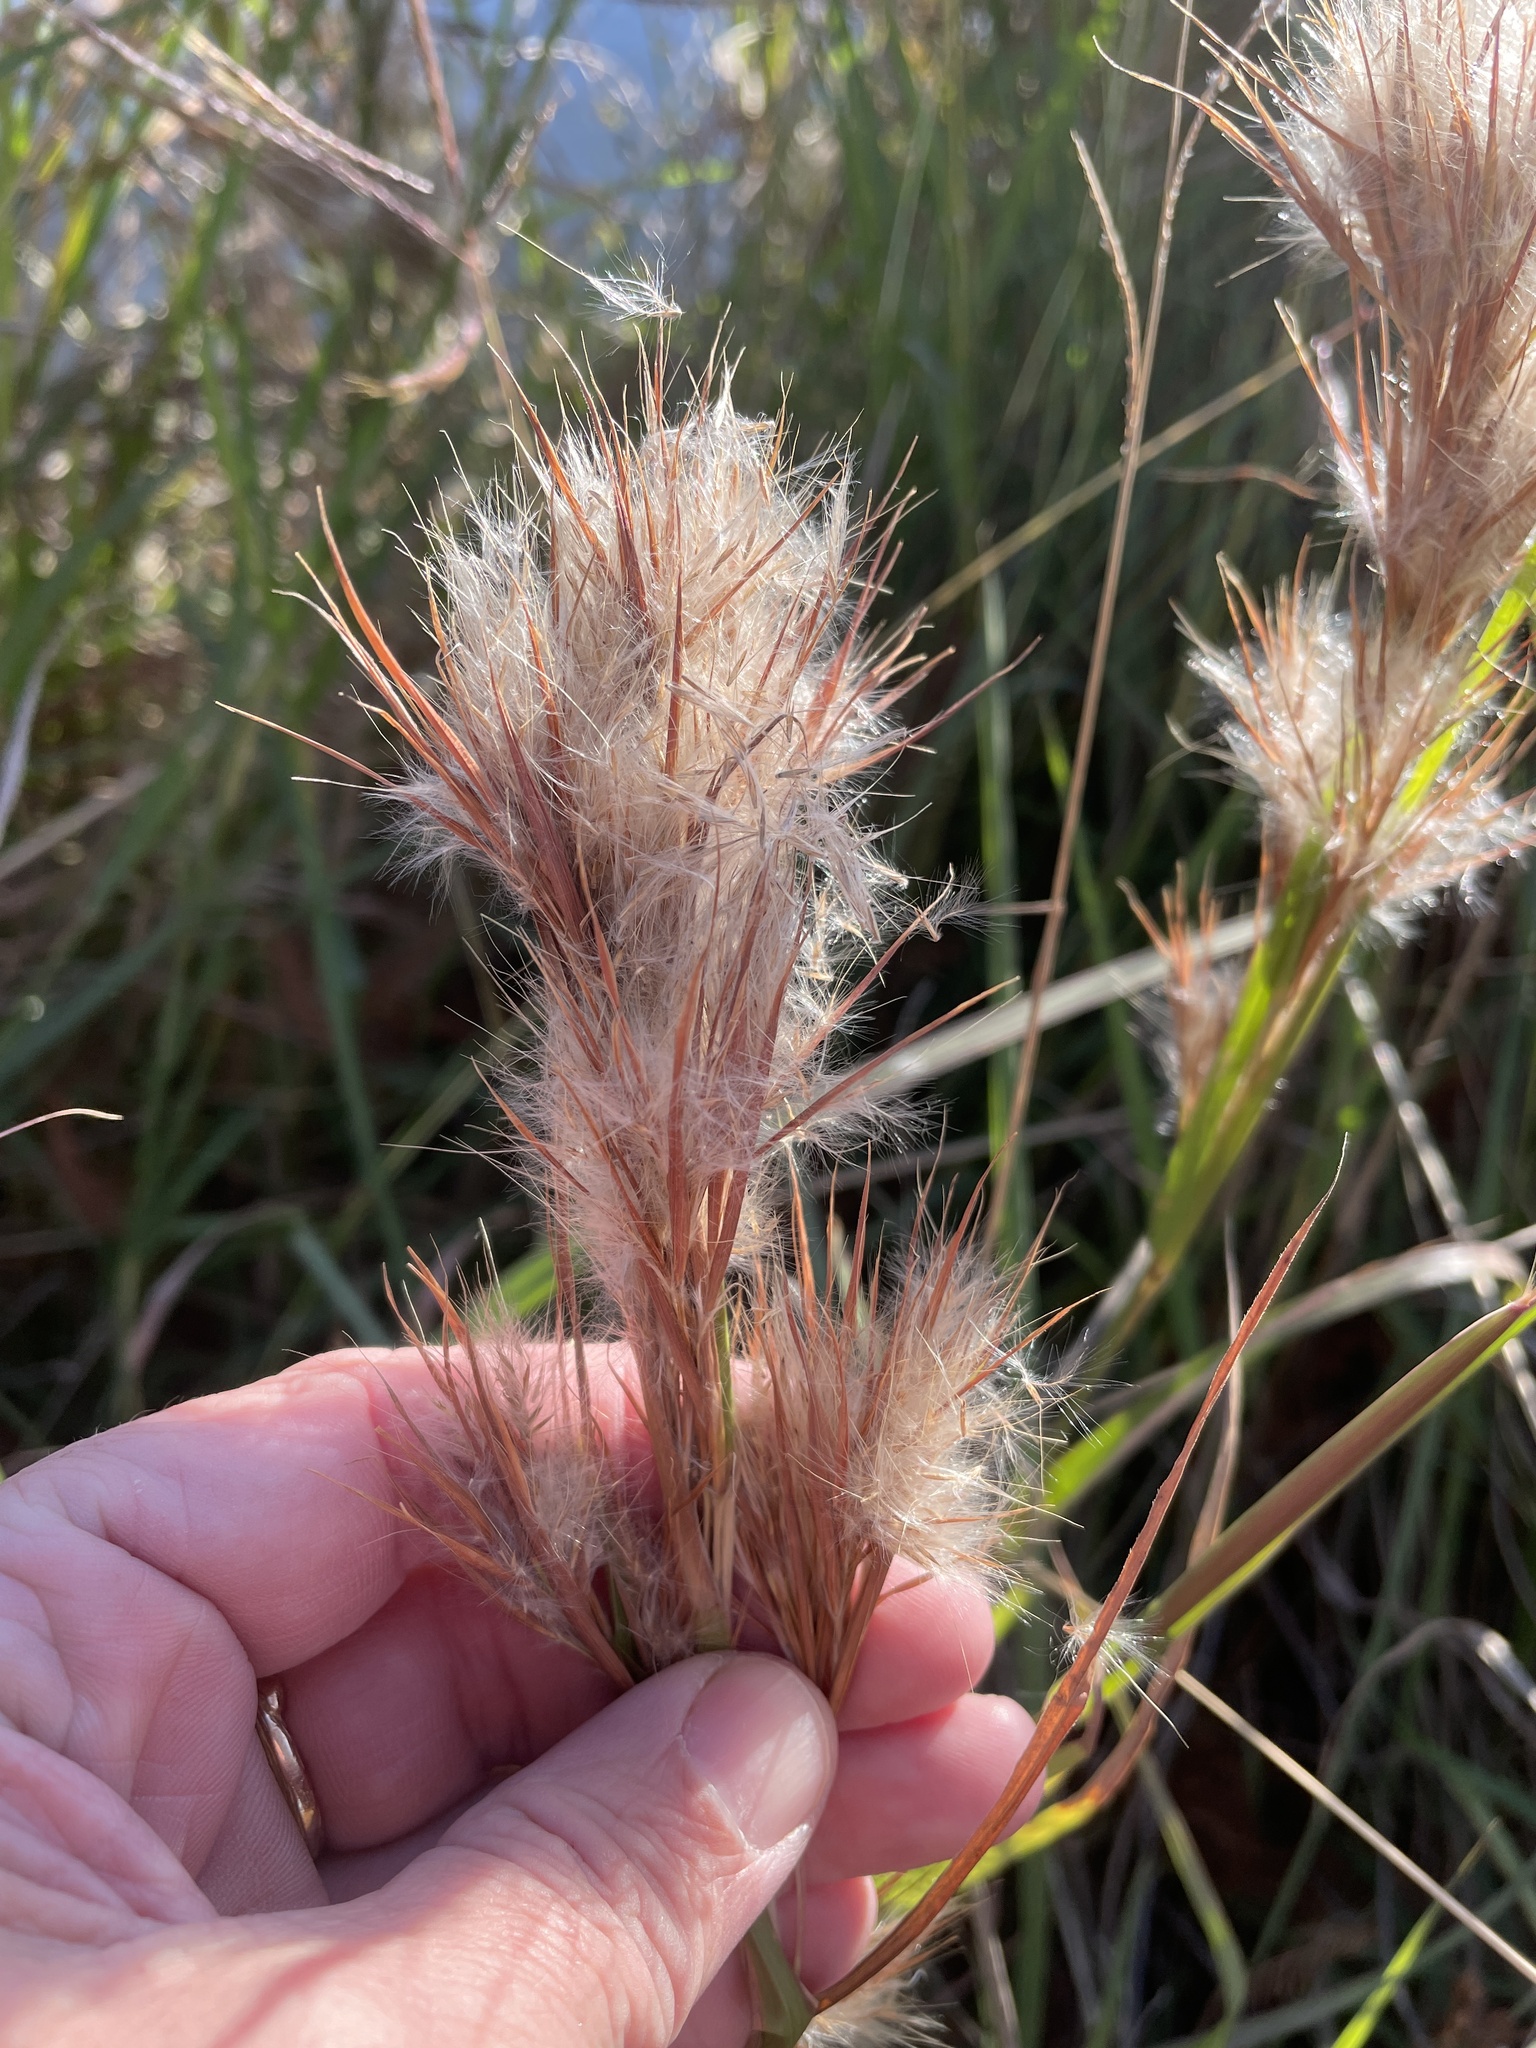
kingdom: Plantae
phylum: Tracheophyta
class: Liliopsida
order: Poales
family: Poaceae
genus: Andropogon
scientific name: Andropogon tenuispatheus
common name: Bushy bluestem
